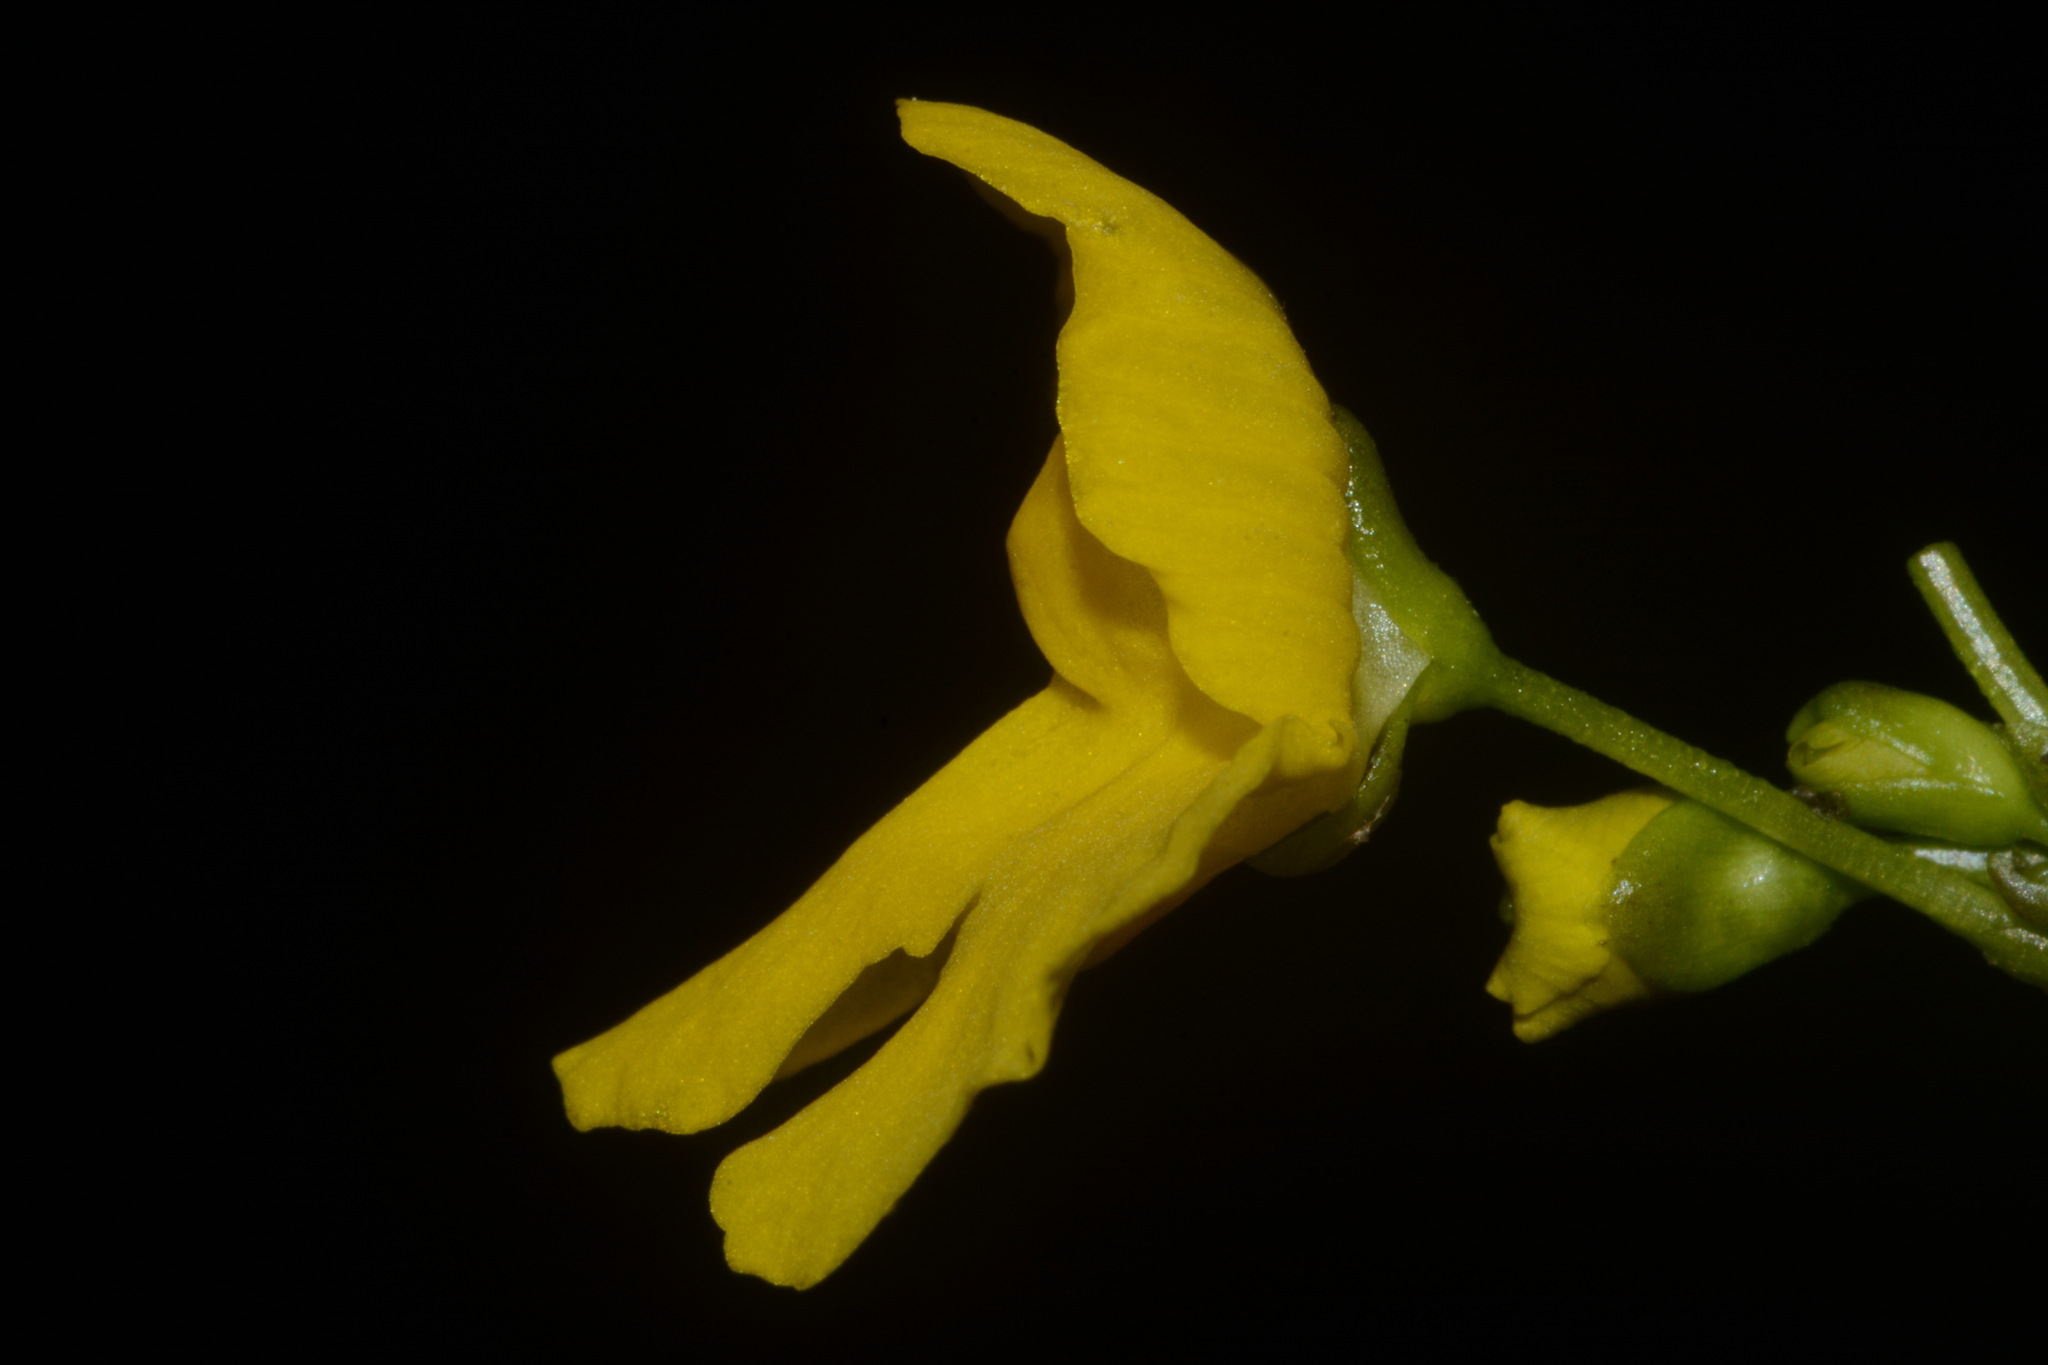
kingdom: Plantae
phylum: Tracheophyta
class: Magnoliopsida
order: Lamiales
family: Lentibulariaceae
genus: Utricularia
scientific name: Utricularia inflata
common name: Floating bladderwort
